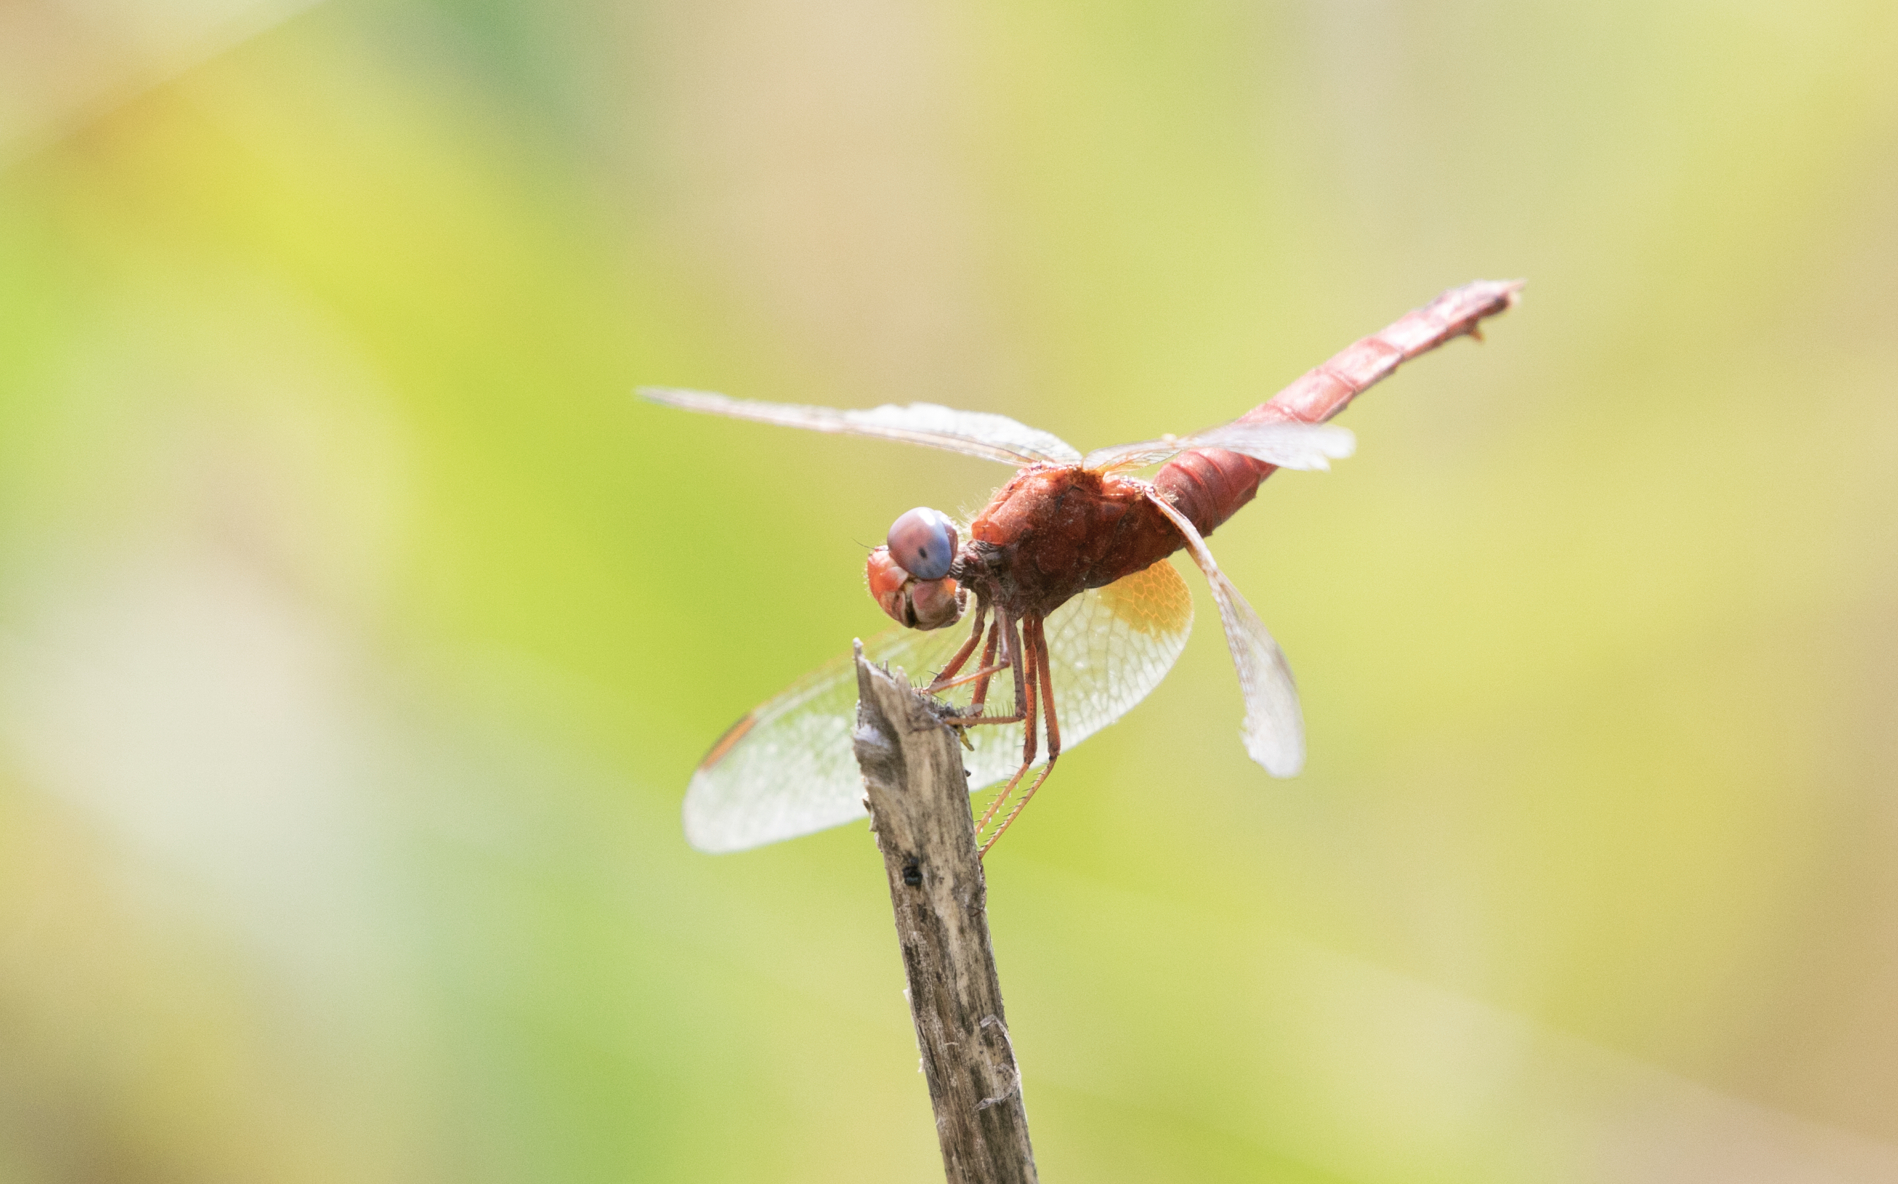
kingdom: Animalia
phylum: Arthropoda
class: Insecta
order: Odonata
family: Libellulidae
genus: Crocothemis
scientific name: Crocothemis erythraea
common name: Scarlet dragonfly
